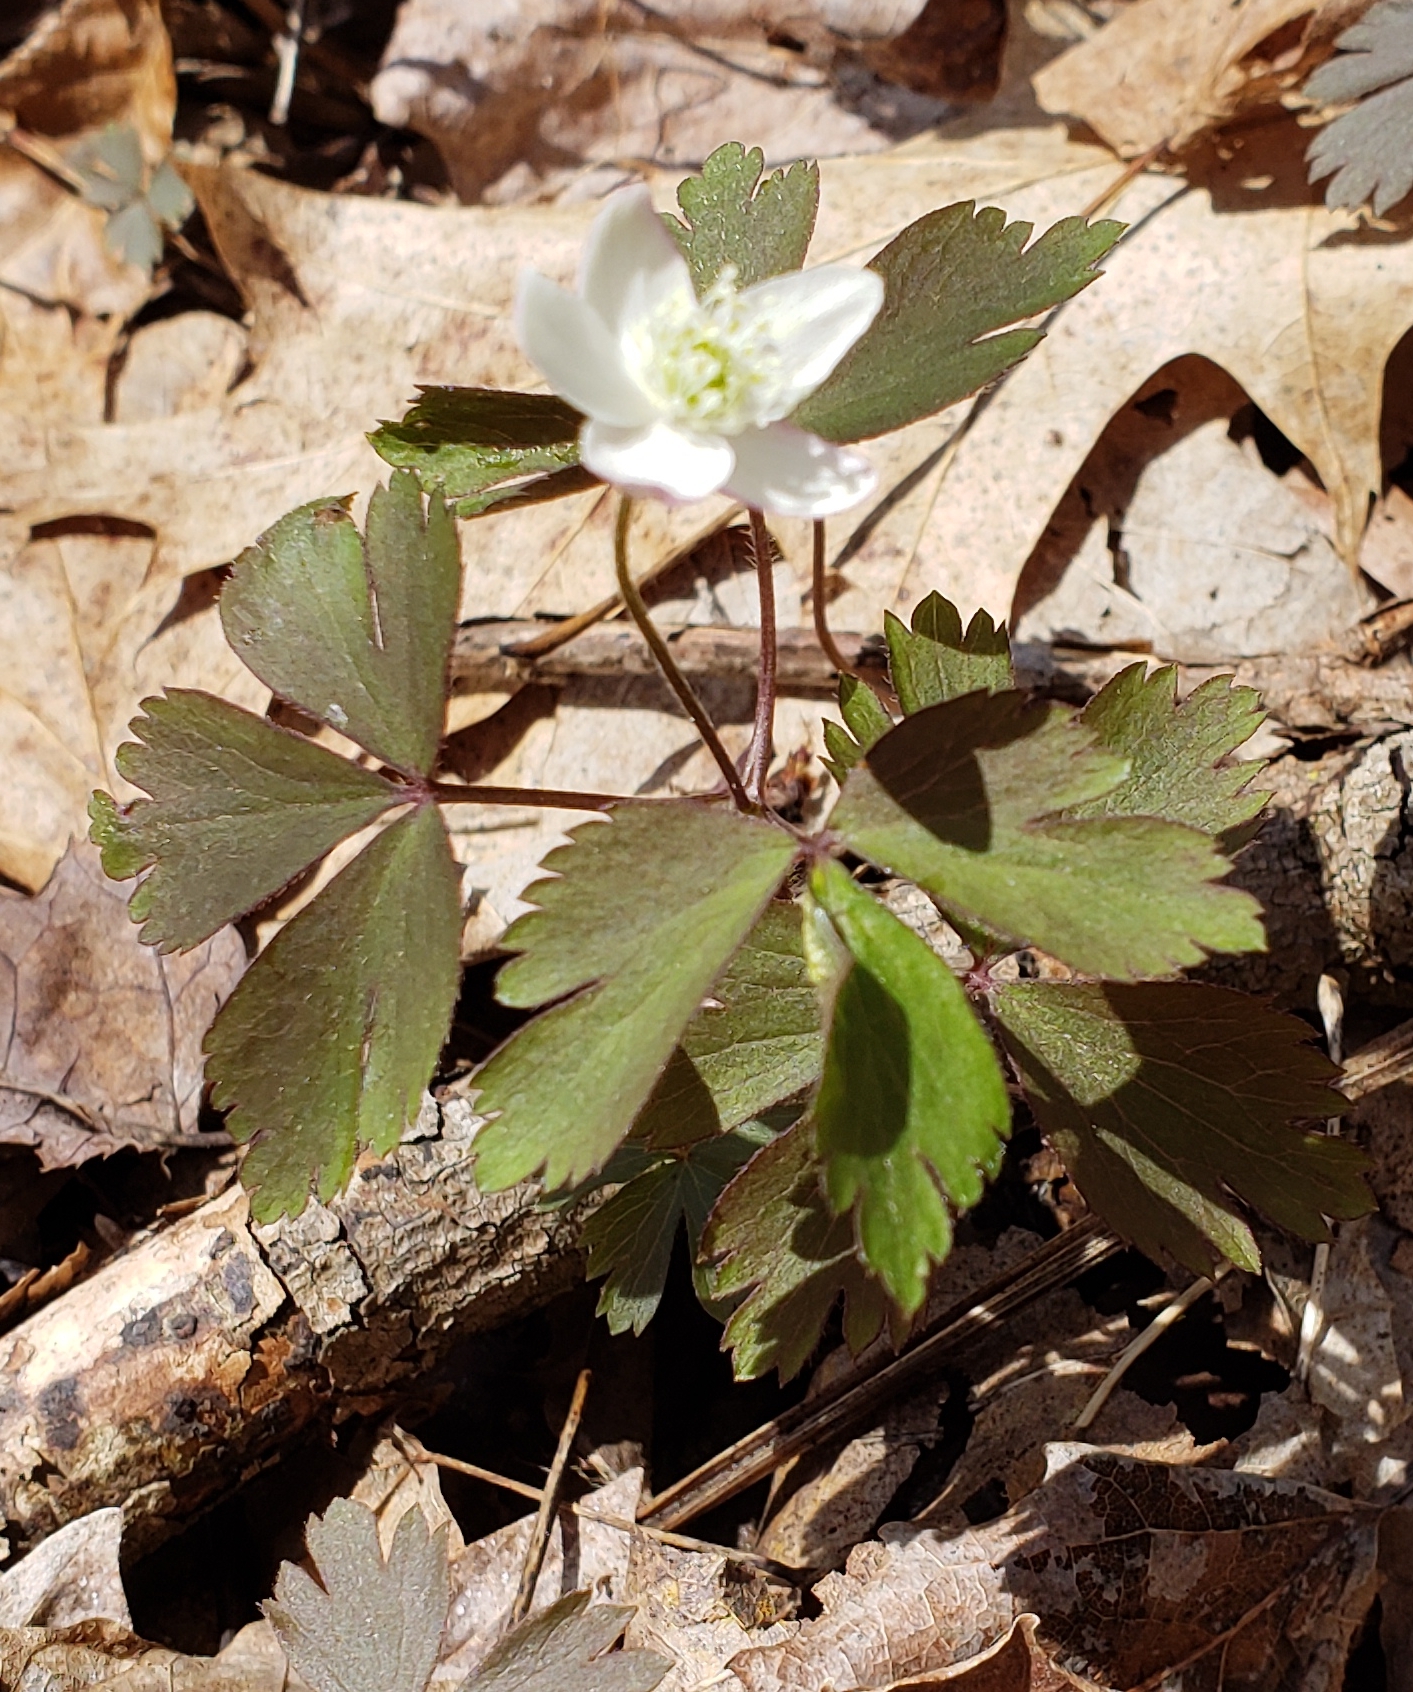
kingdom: Plantae
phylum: Tracheophyta
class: Magnoliopsida
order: Ranunculales
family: Ranunculaceae
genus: Anemone
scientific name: Anemone quinquefolia
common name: Wood anemone
